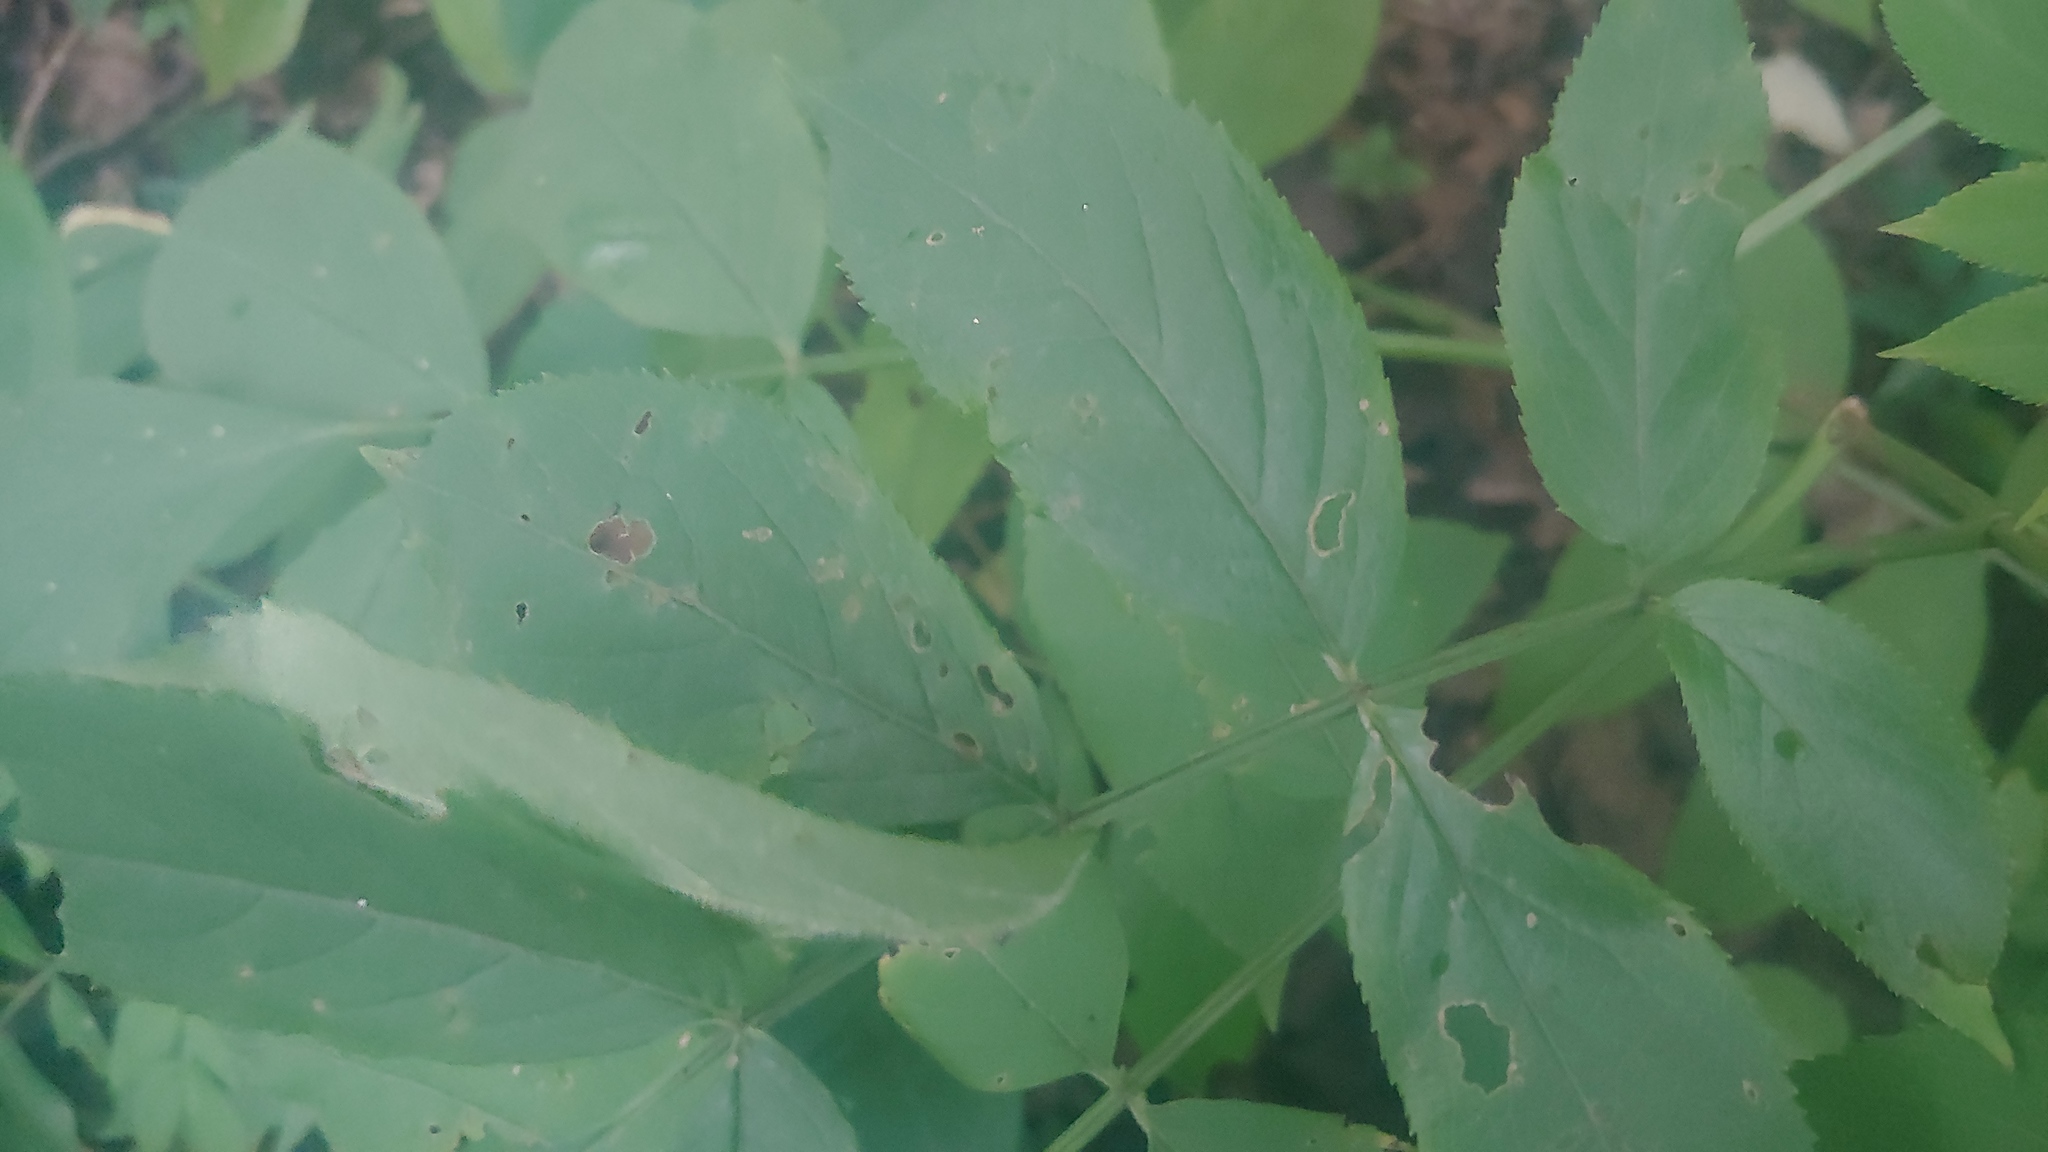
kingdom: Plantae
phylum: Tracheophyta
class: Magnoliopsida
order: Lamiales
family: Oleaceae
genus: Fraxinus
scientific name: Fraxinus quadrangulata
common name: Blue ash
